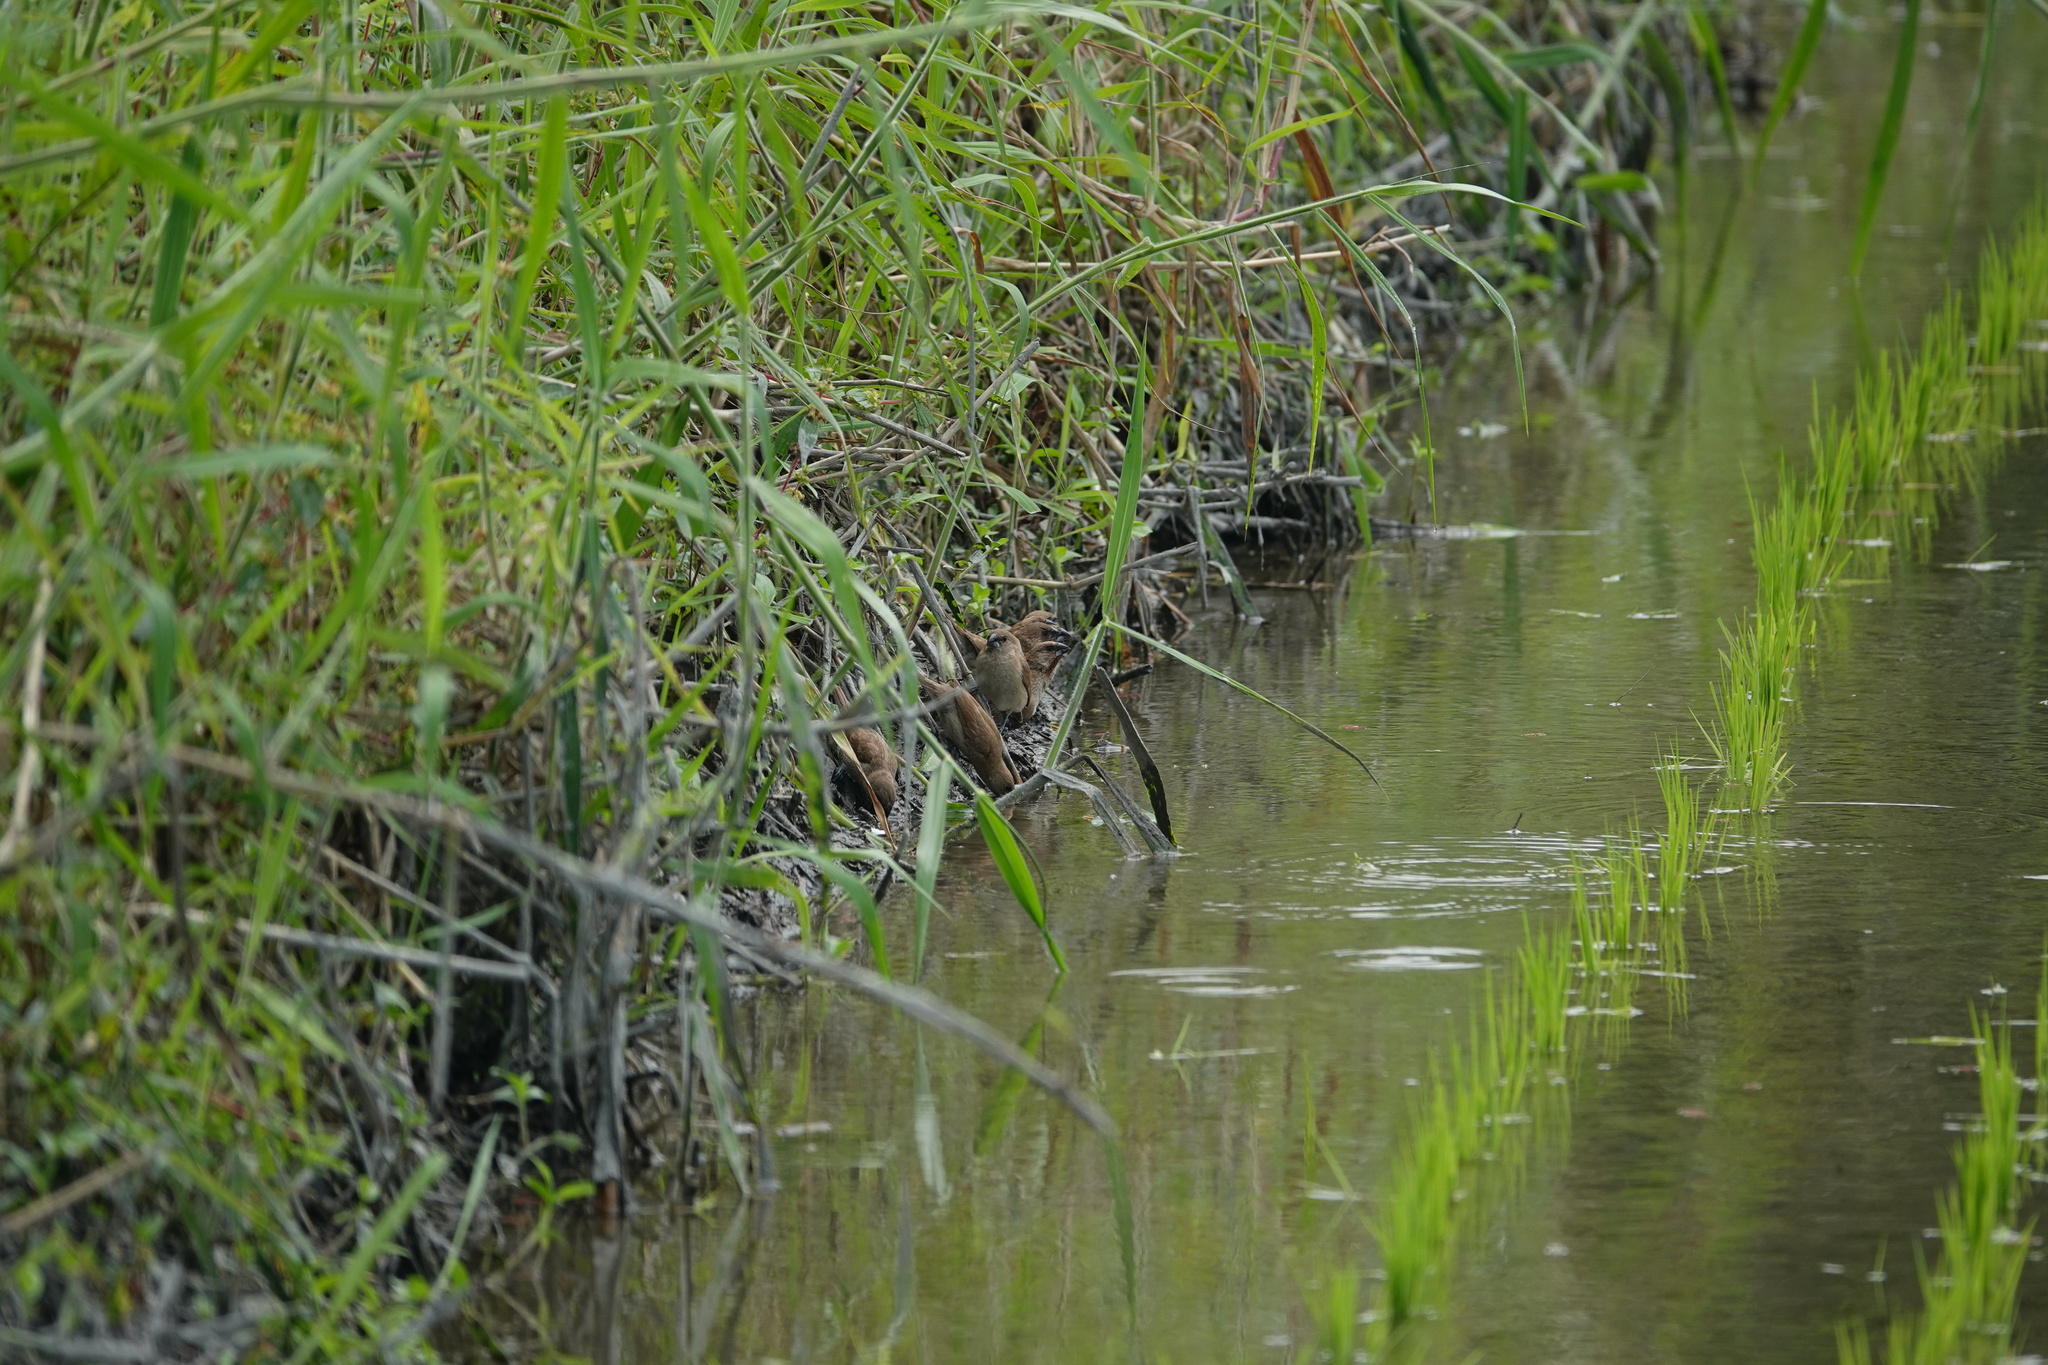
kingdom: Animalia
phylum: Chordata
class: Aves
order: Passeriformes
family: Estrildidae
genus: Lonchura
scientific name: Lonchura punctulata
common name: Scaly-breasted munia
